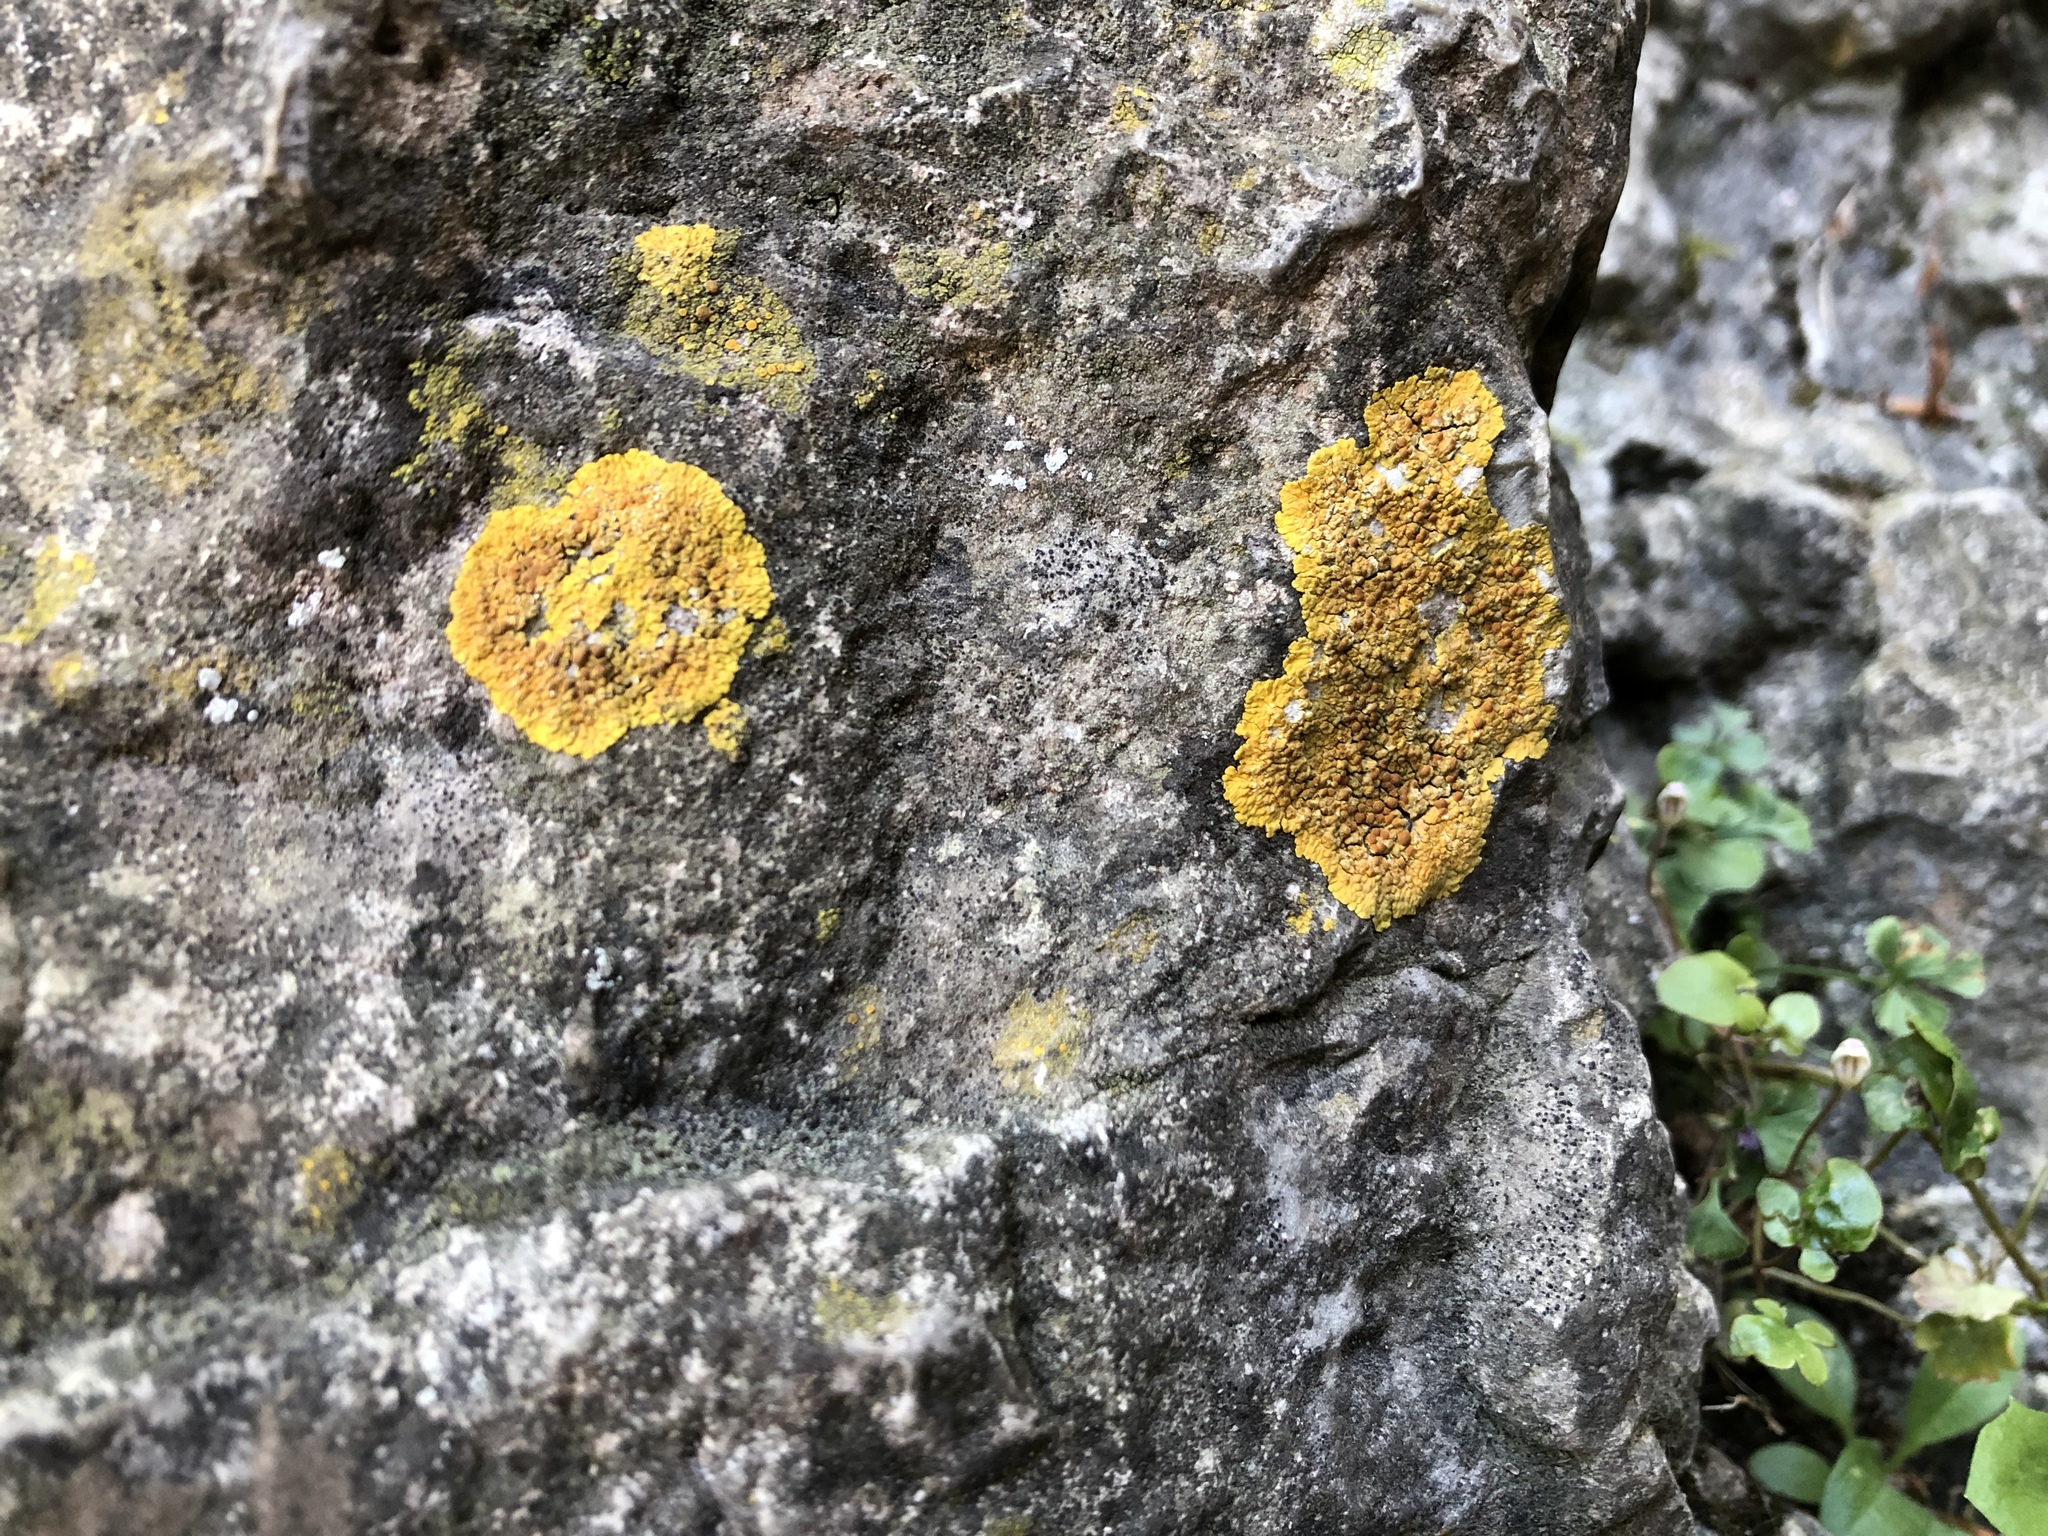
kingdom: Fungi
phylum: Ascomycota
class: Lecanoromycetes
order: Teloschistales
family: Teloschistaceae
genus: Xanthoria
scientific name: Xanthoria parietina
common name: Common orange lichen
